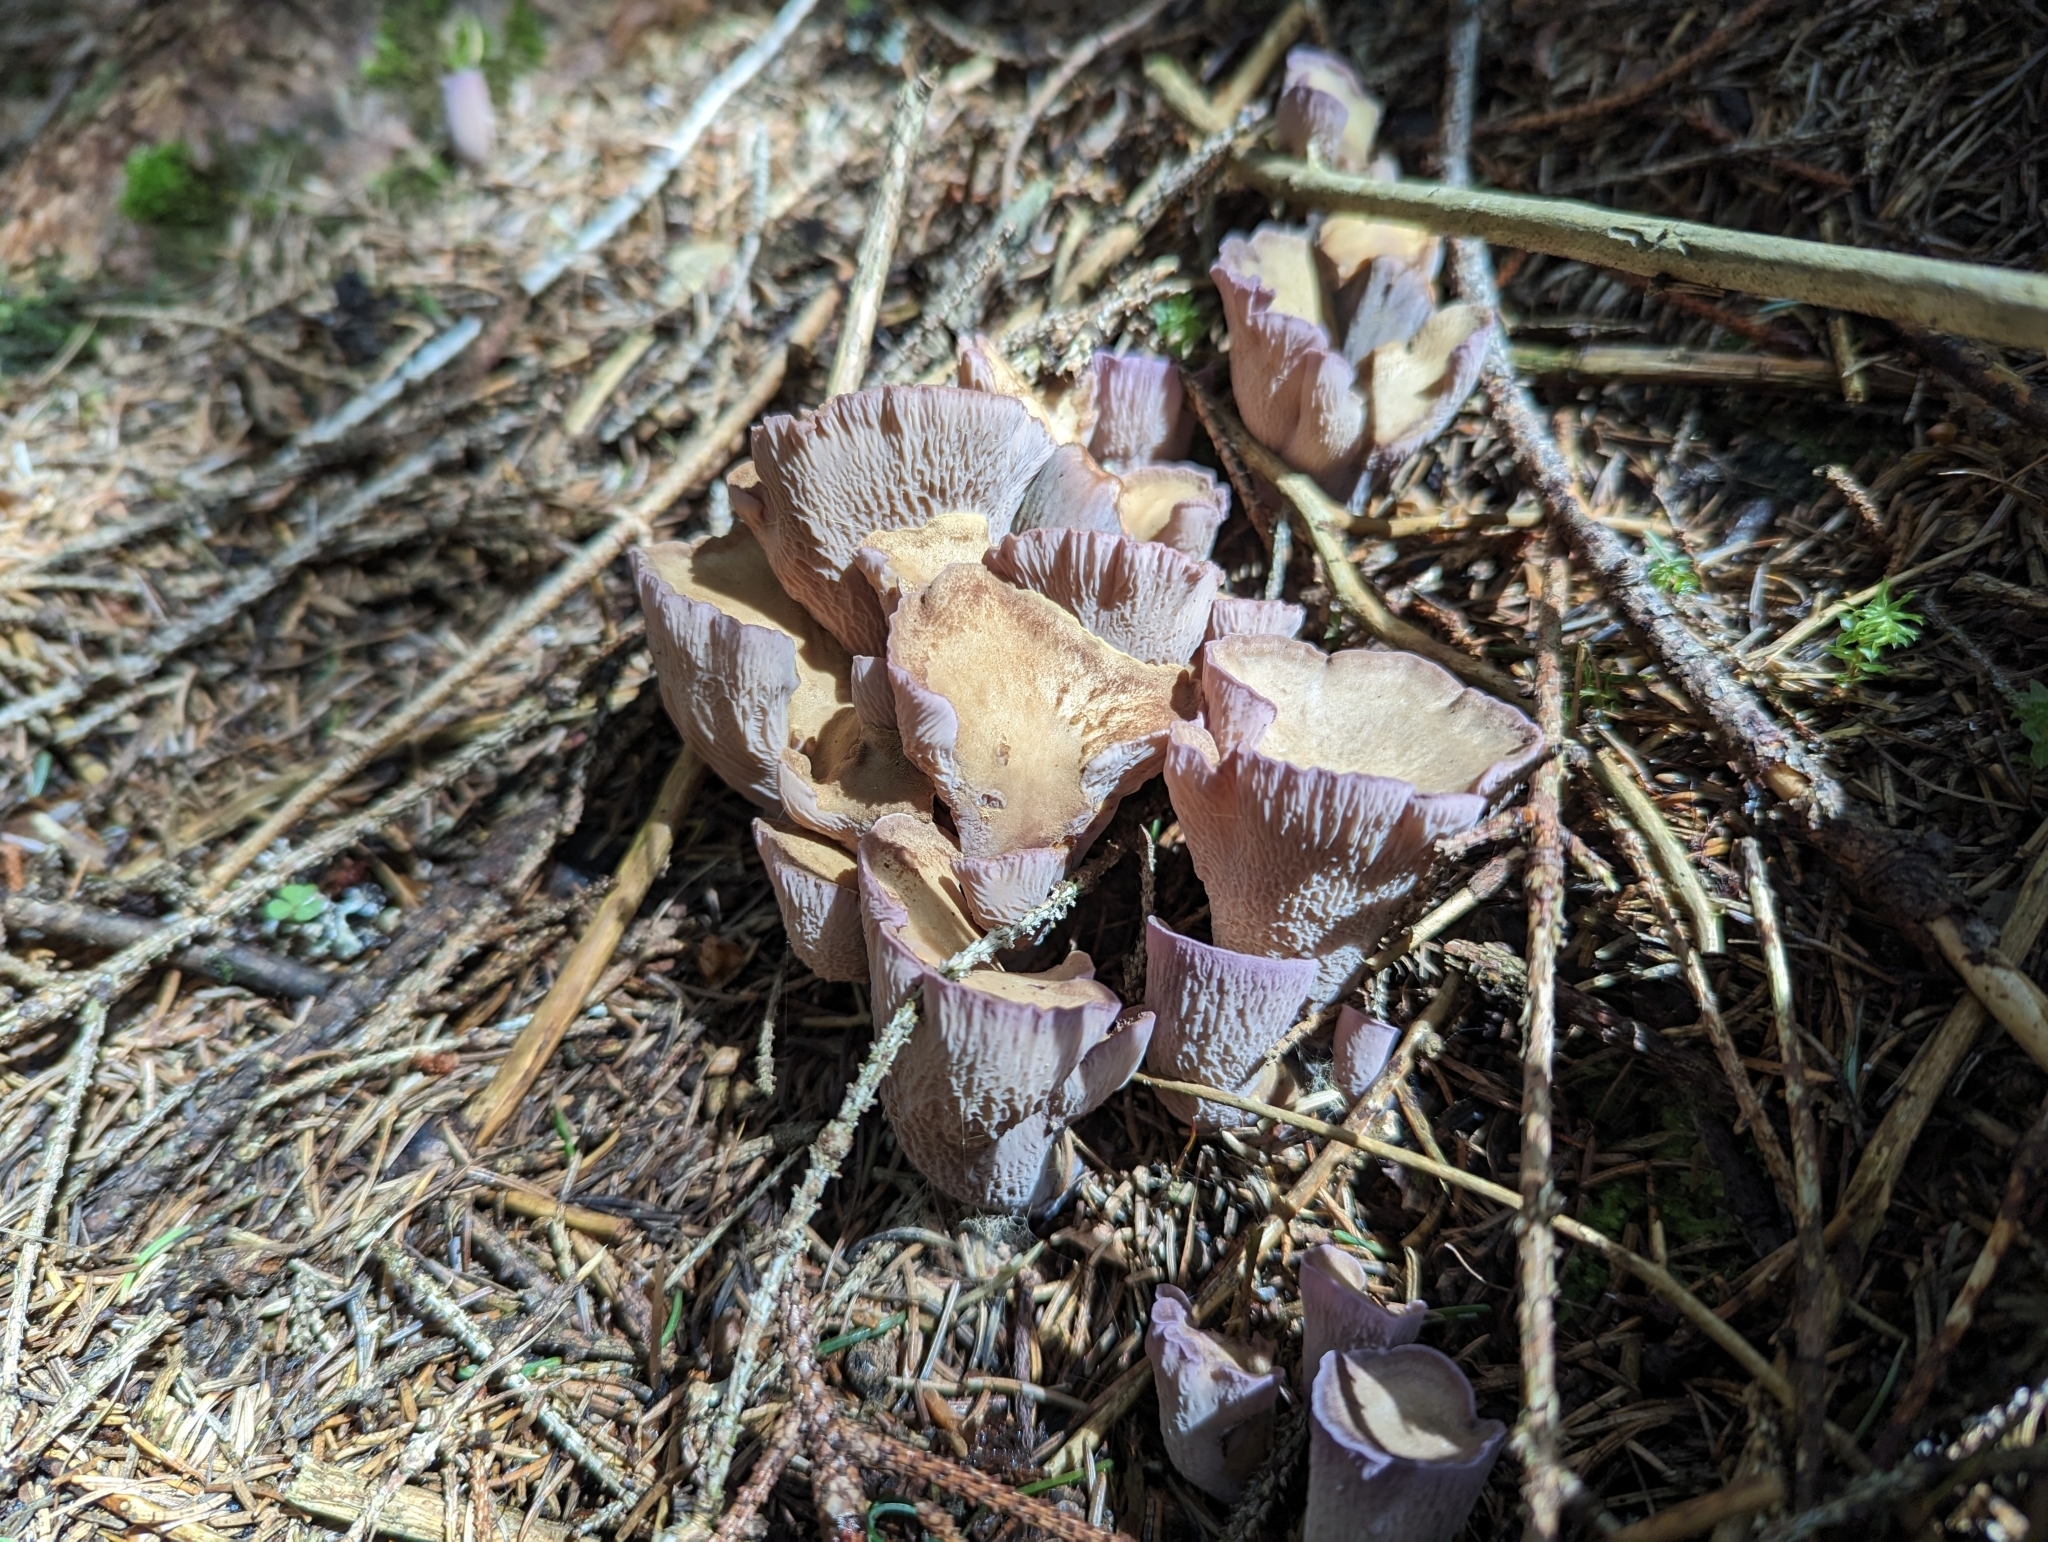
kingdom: Fungi
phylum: Basidiomycota
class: Agaricomycetes
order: Gomphales
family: Gomphaceae
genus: Gomphus
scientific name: Gomphus clavatus
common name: Pig's ear
